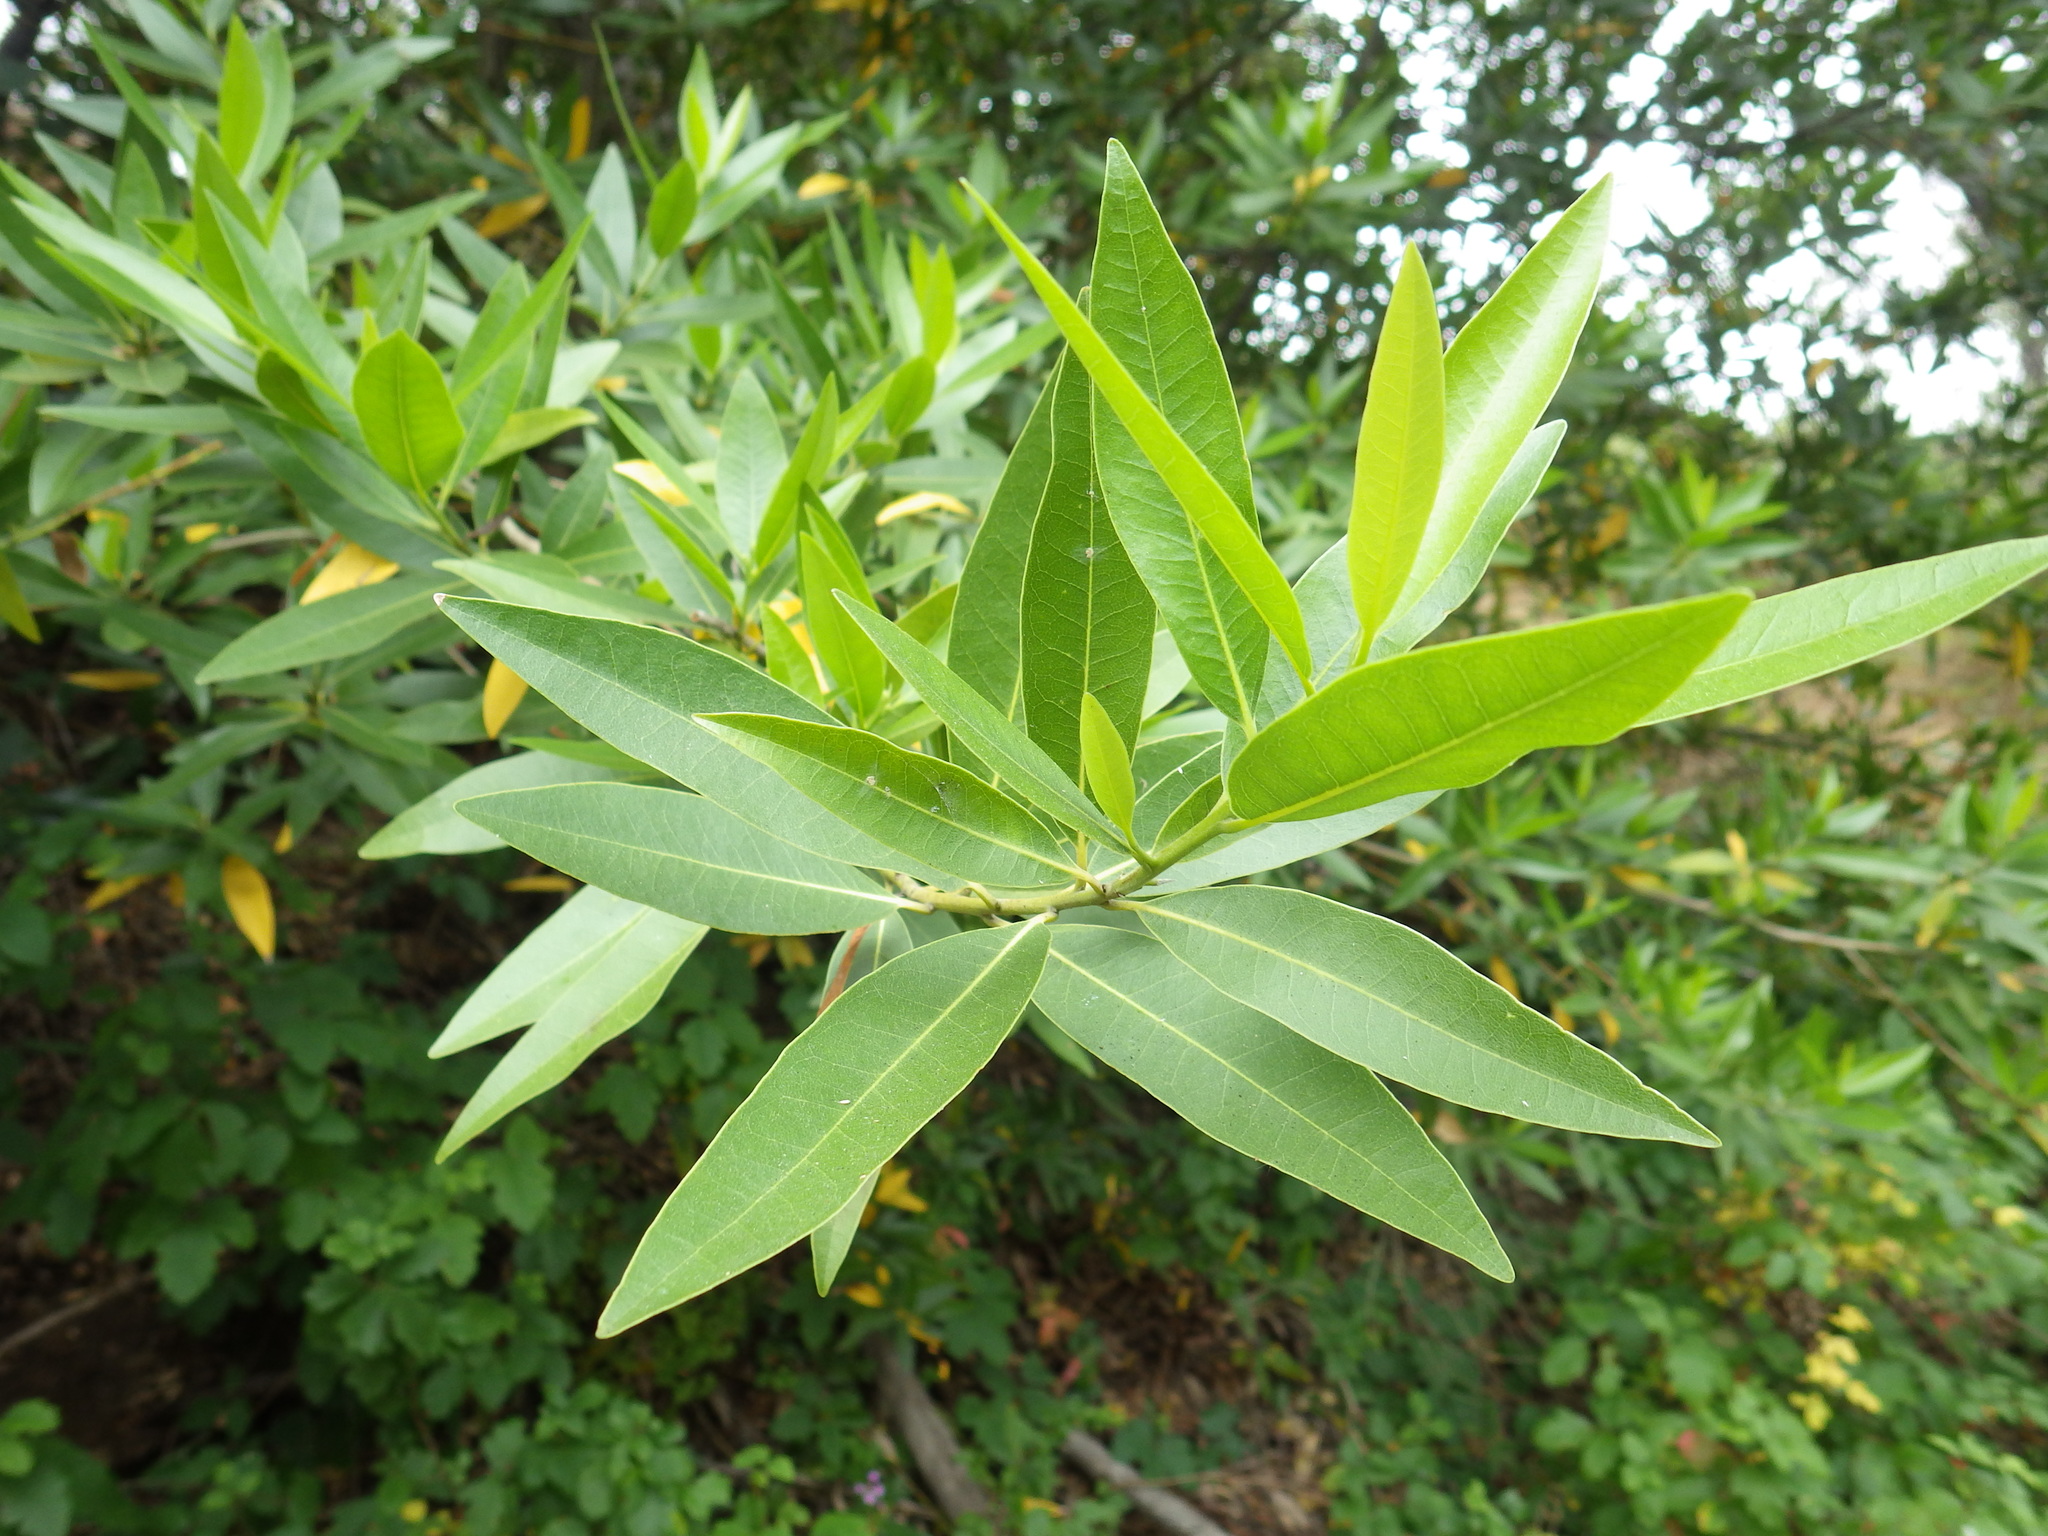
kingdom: Plantae
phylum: Tracheophyta
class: Magnoliopsida
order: Laurales
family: Lauraceae
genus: Umbellularia
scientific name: Umbellularia californica
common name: California bay
